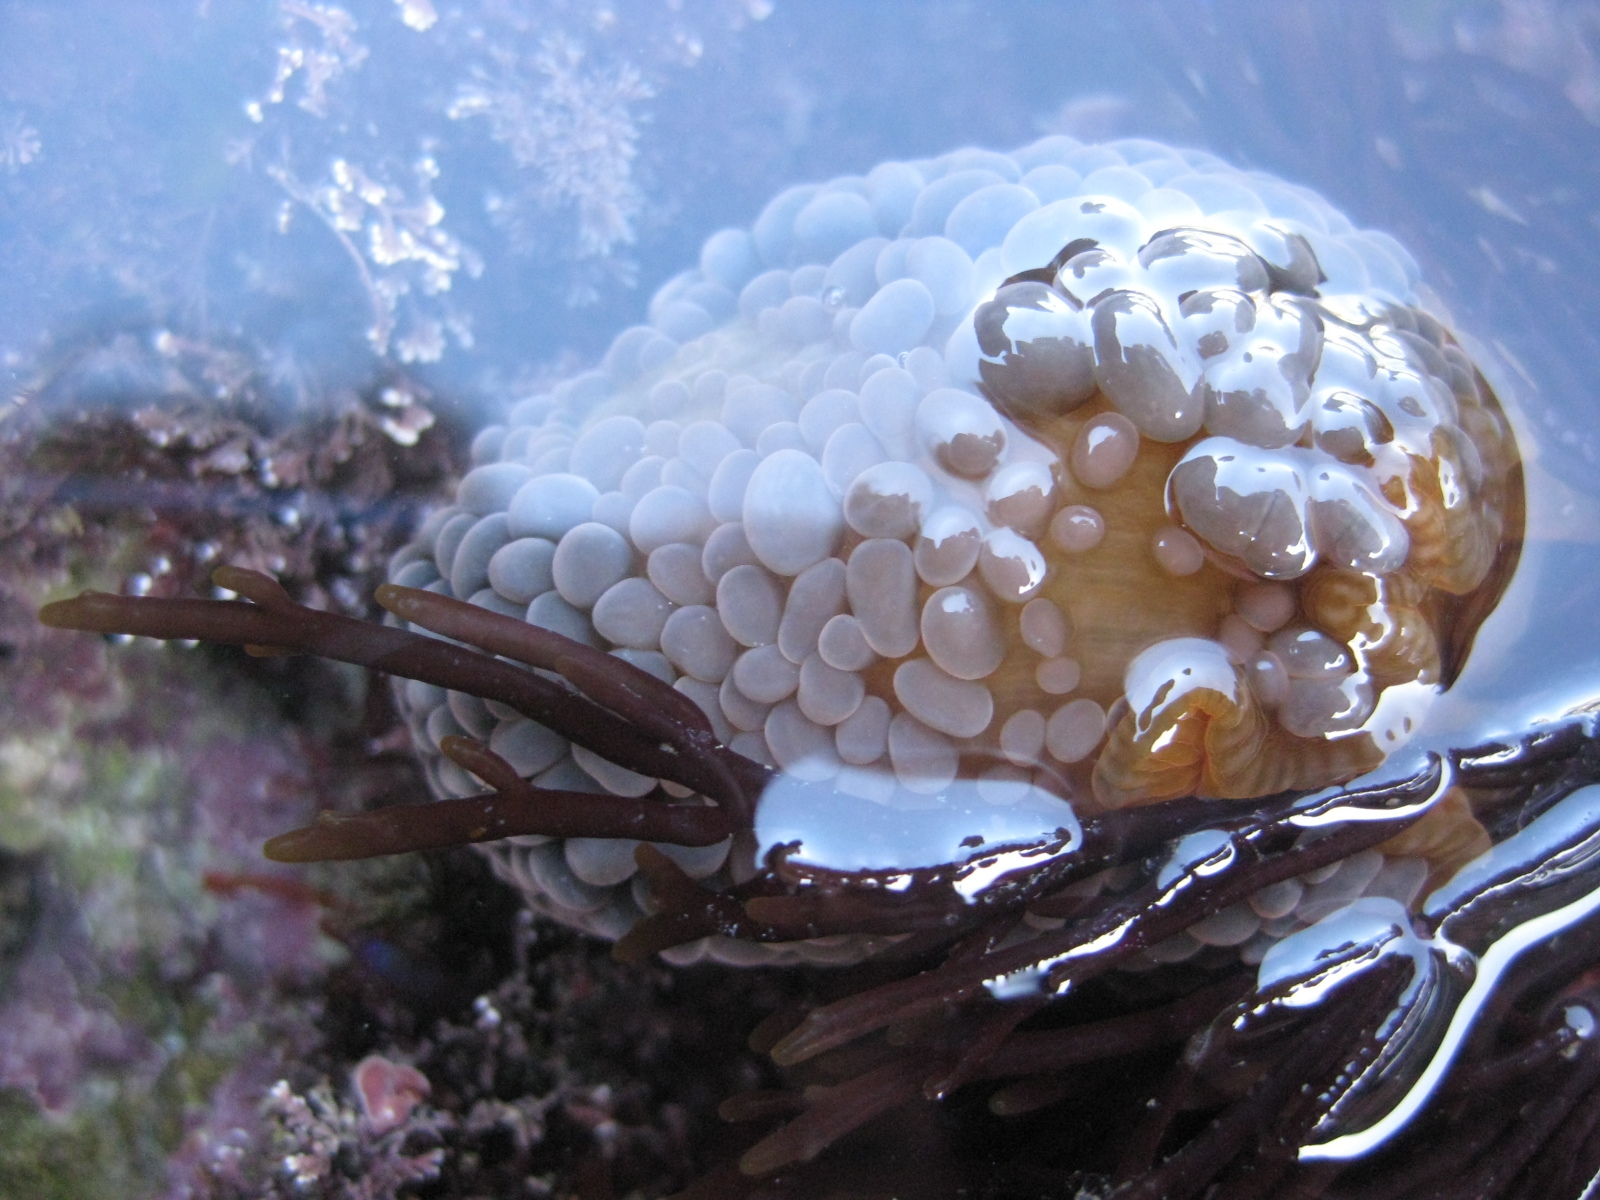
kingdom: Animalia
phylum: Cnidaria
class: Anthozoa
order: Actiniaria
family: Actiniidae
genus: Phlyctenactis
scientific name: Phlyctenactis tuberculosa
